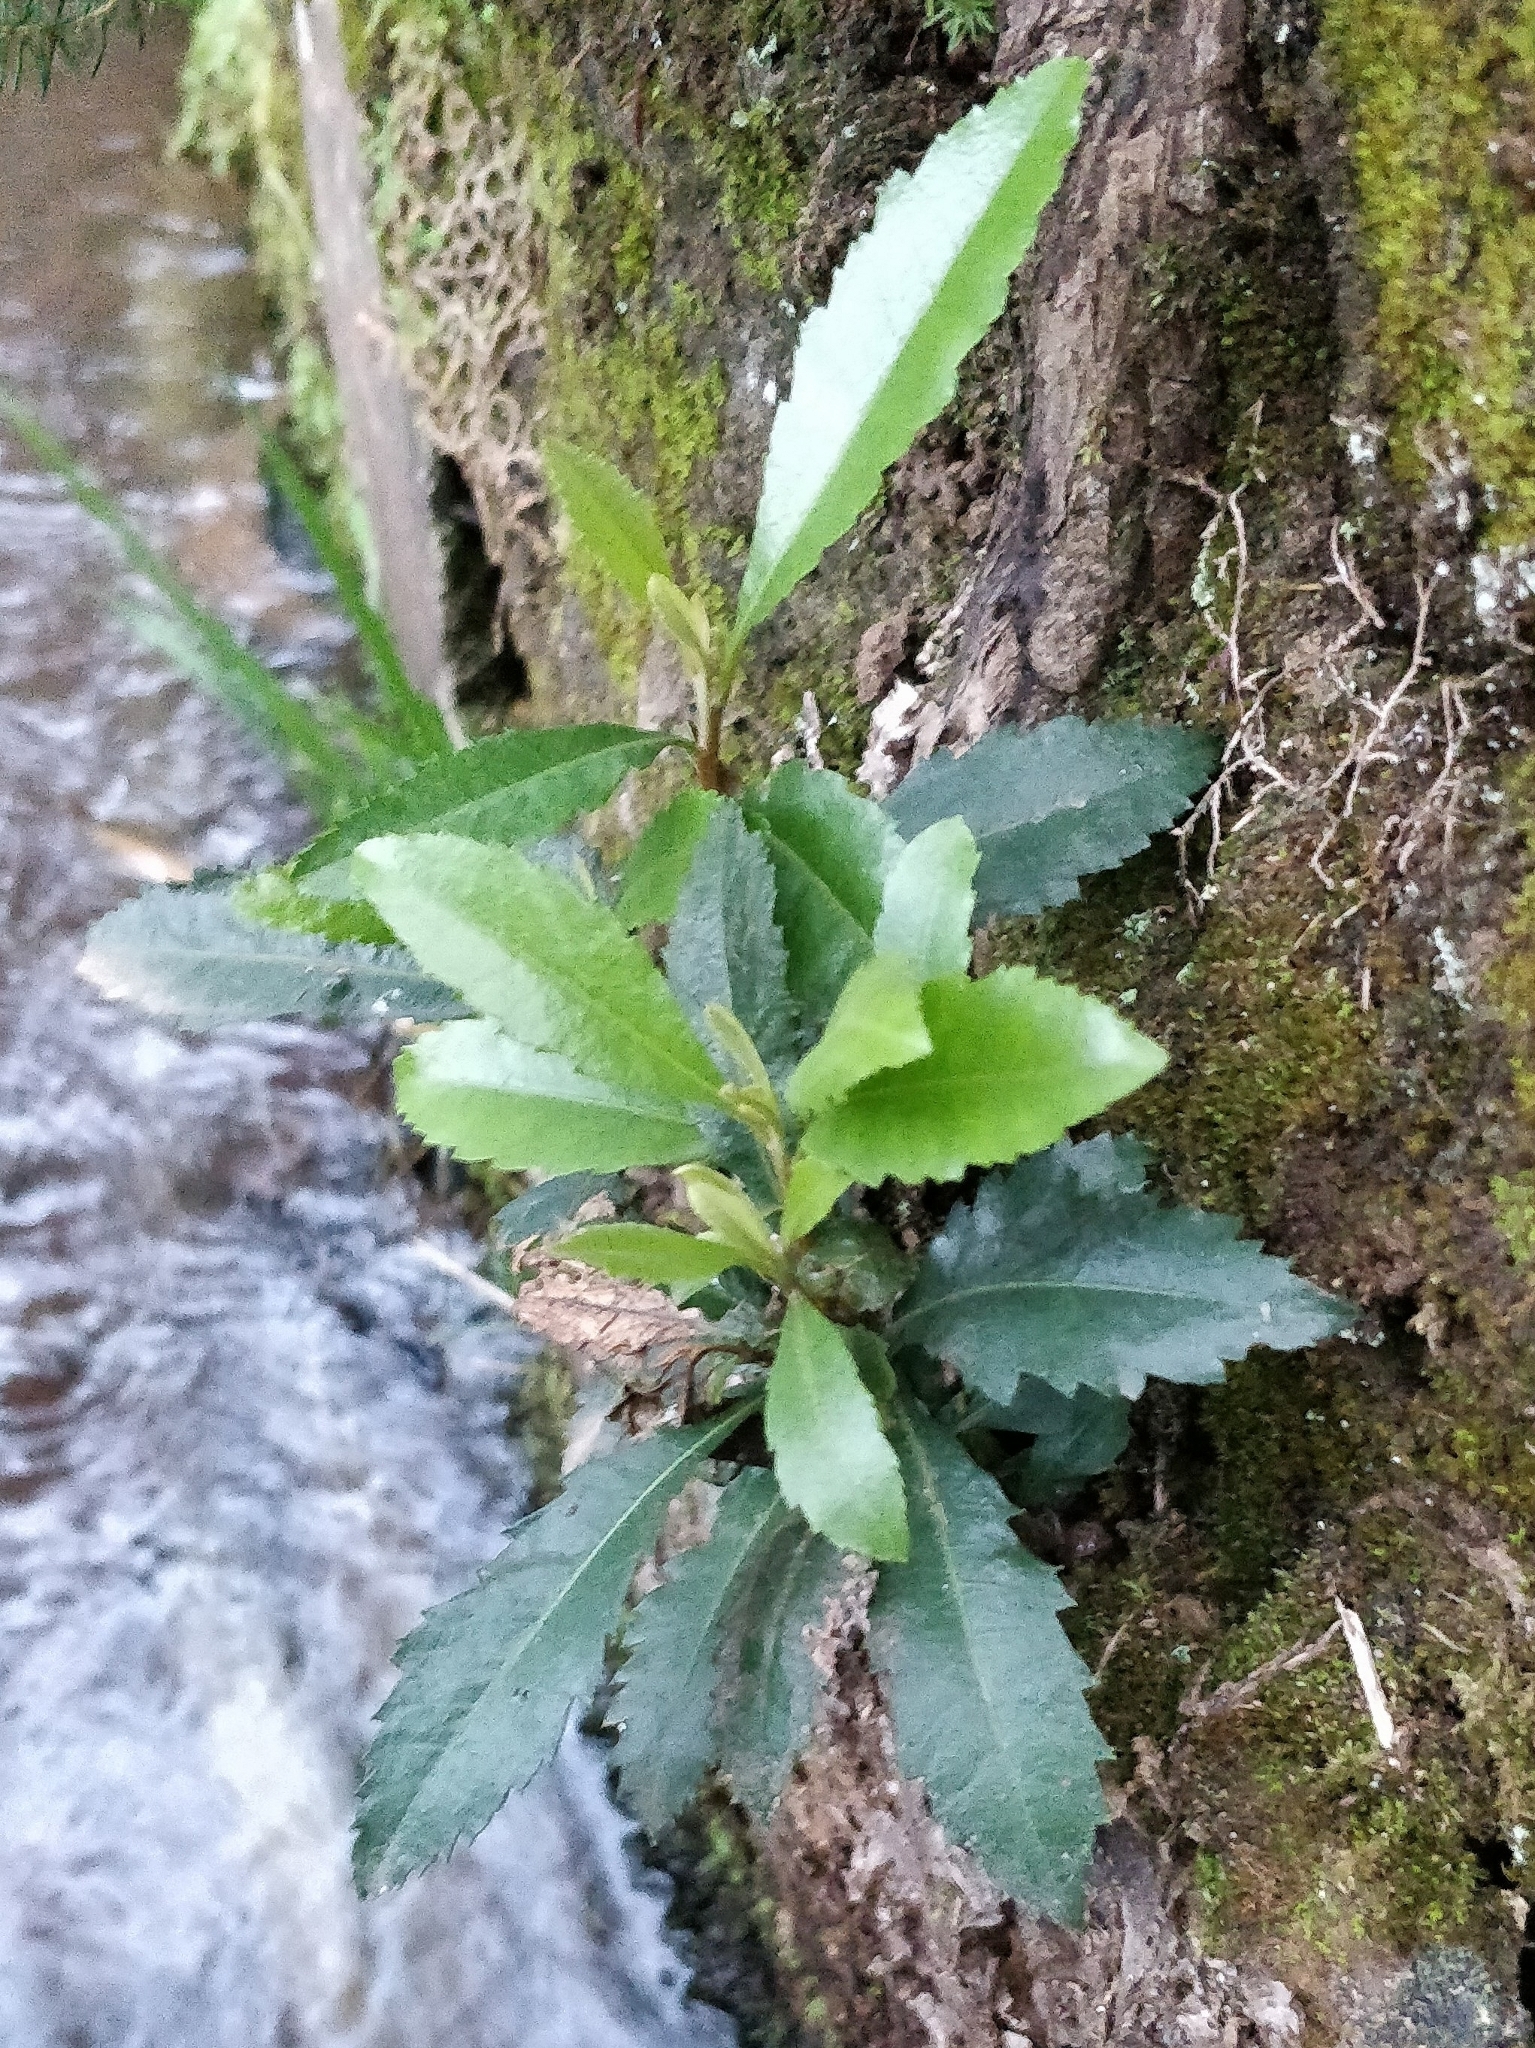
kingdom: Plantae
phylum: Tracheophyta
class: Magnoliopsida
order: Fagales
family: Myricaceae
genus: Morella
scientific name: Morella faya
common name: Firetree
